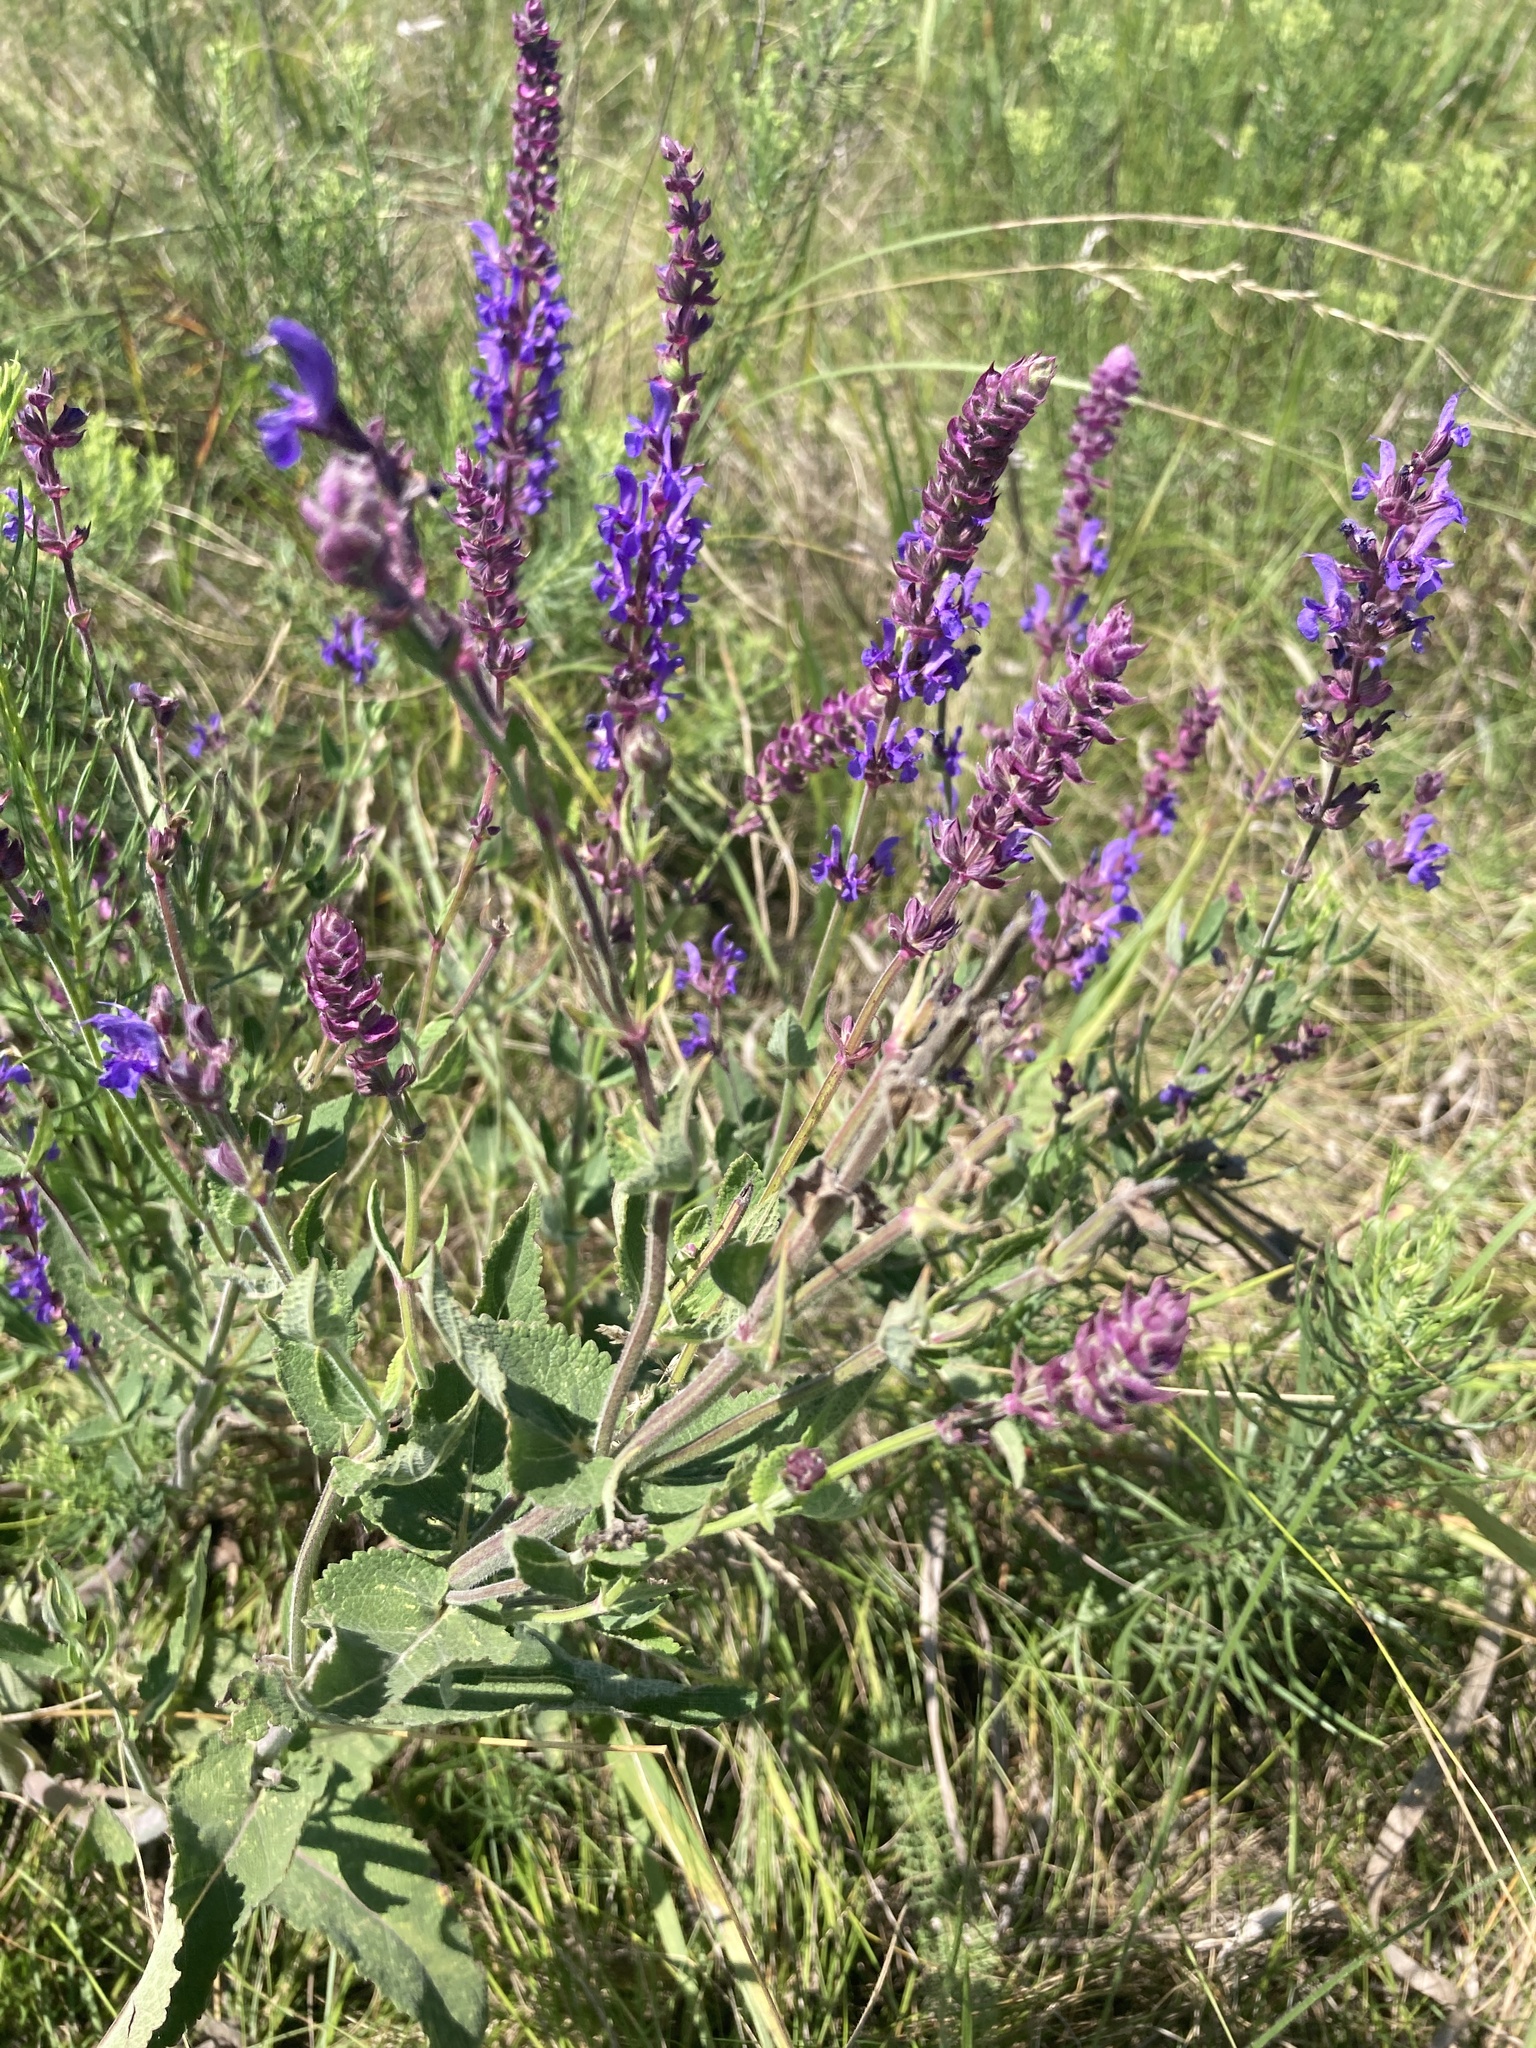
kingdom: Plantae
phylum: Tracheophyta
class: Magnoliopsida
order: Lamiales
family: Lamiaceae
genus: Salvia
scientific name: Salvia nemorosa
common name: Balkan clary
